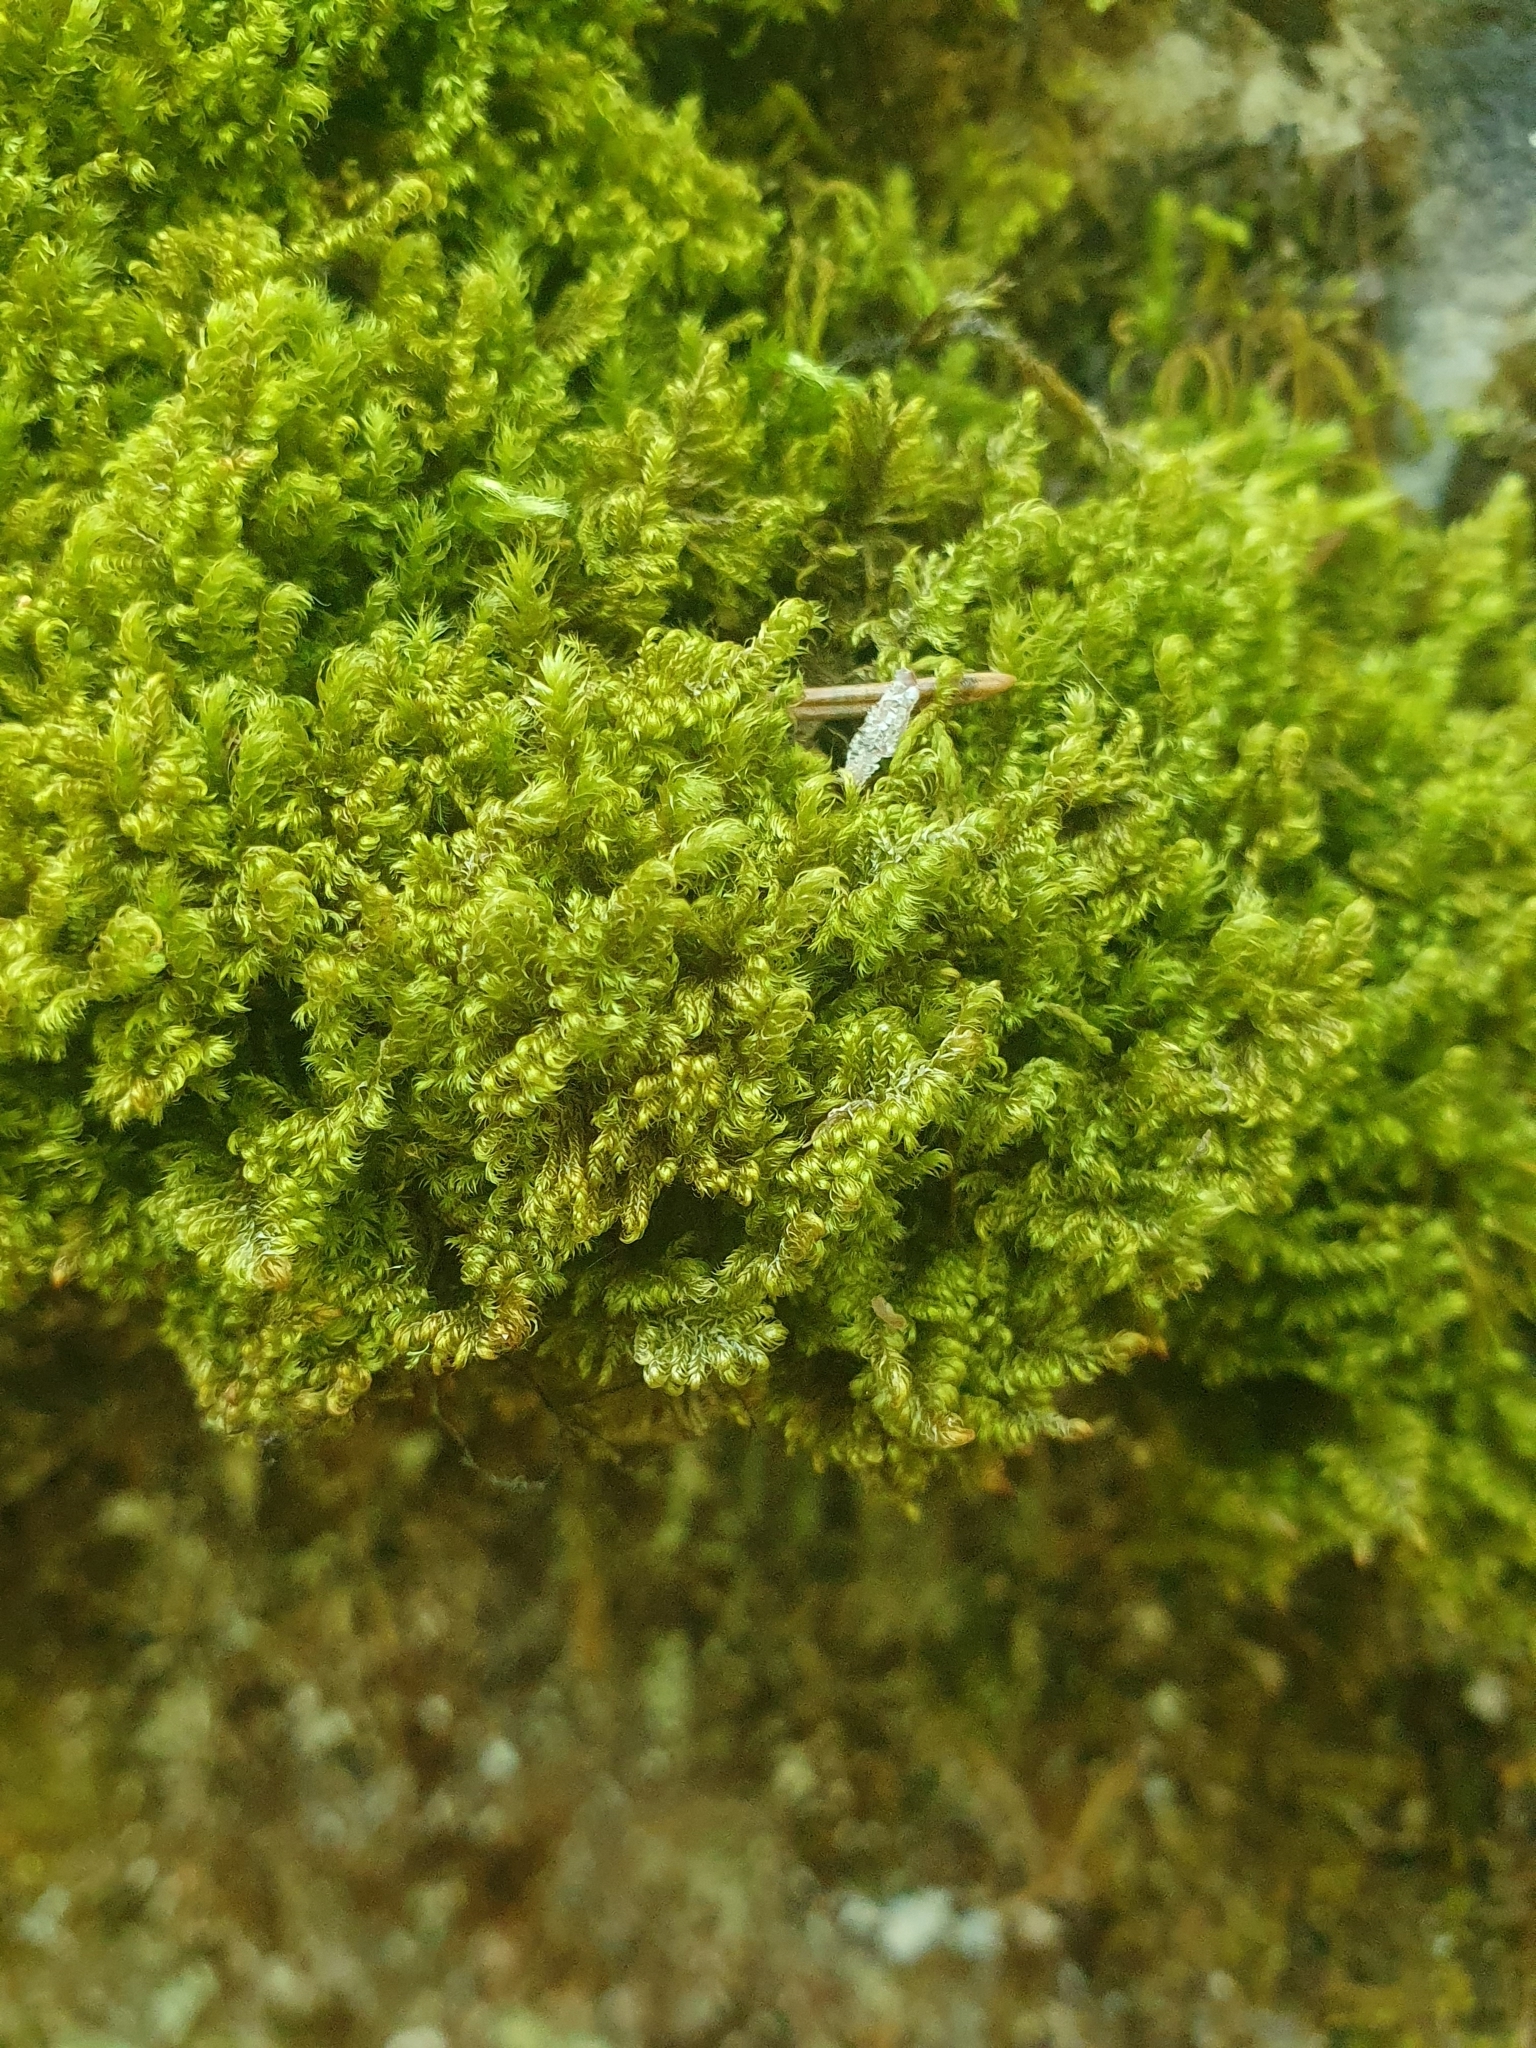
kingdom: Plantae
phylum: Bryophyta
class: Bryopsida
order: Hypnales
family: Myuriaceae
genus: Ctenidium
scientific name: Ctenidium molluscum
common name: Chalk comb-moss
